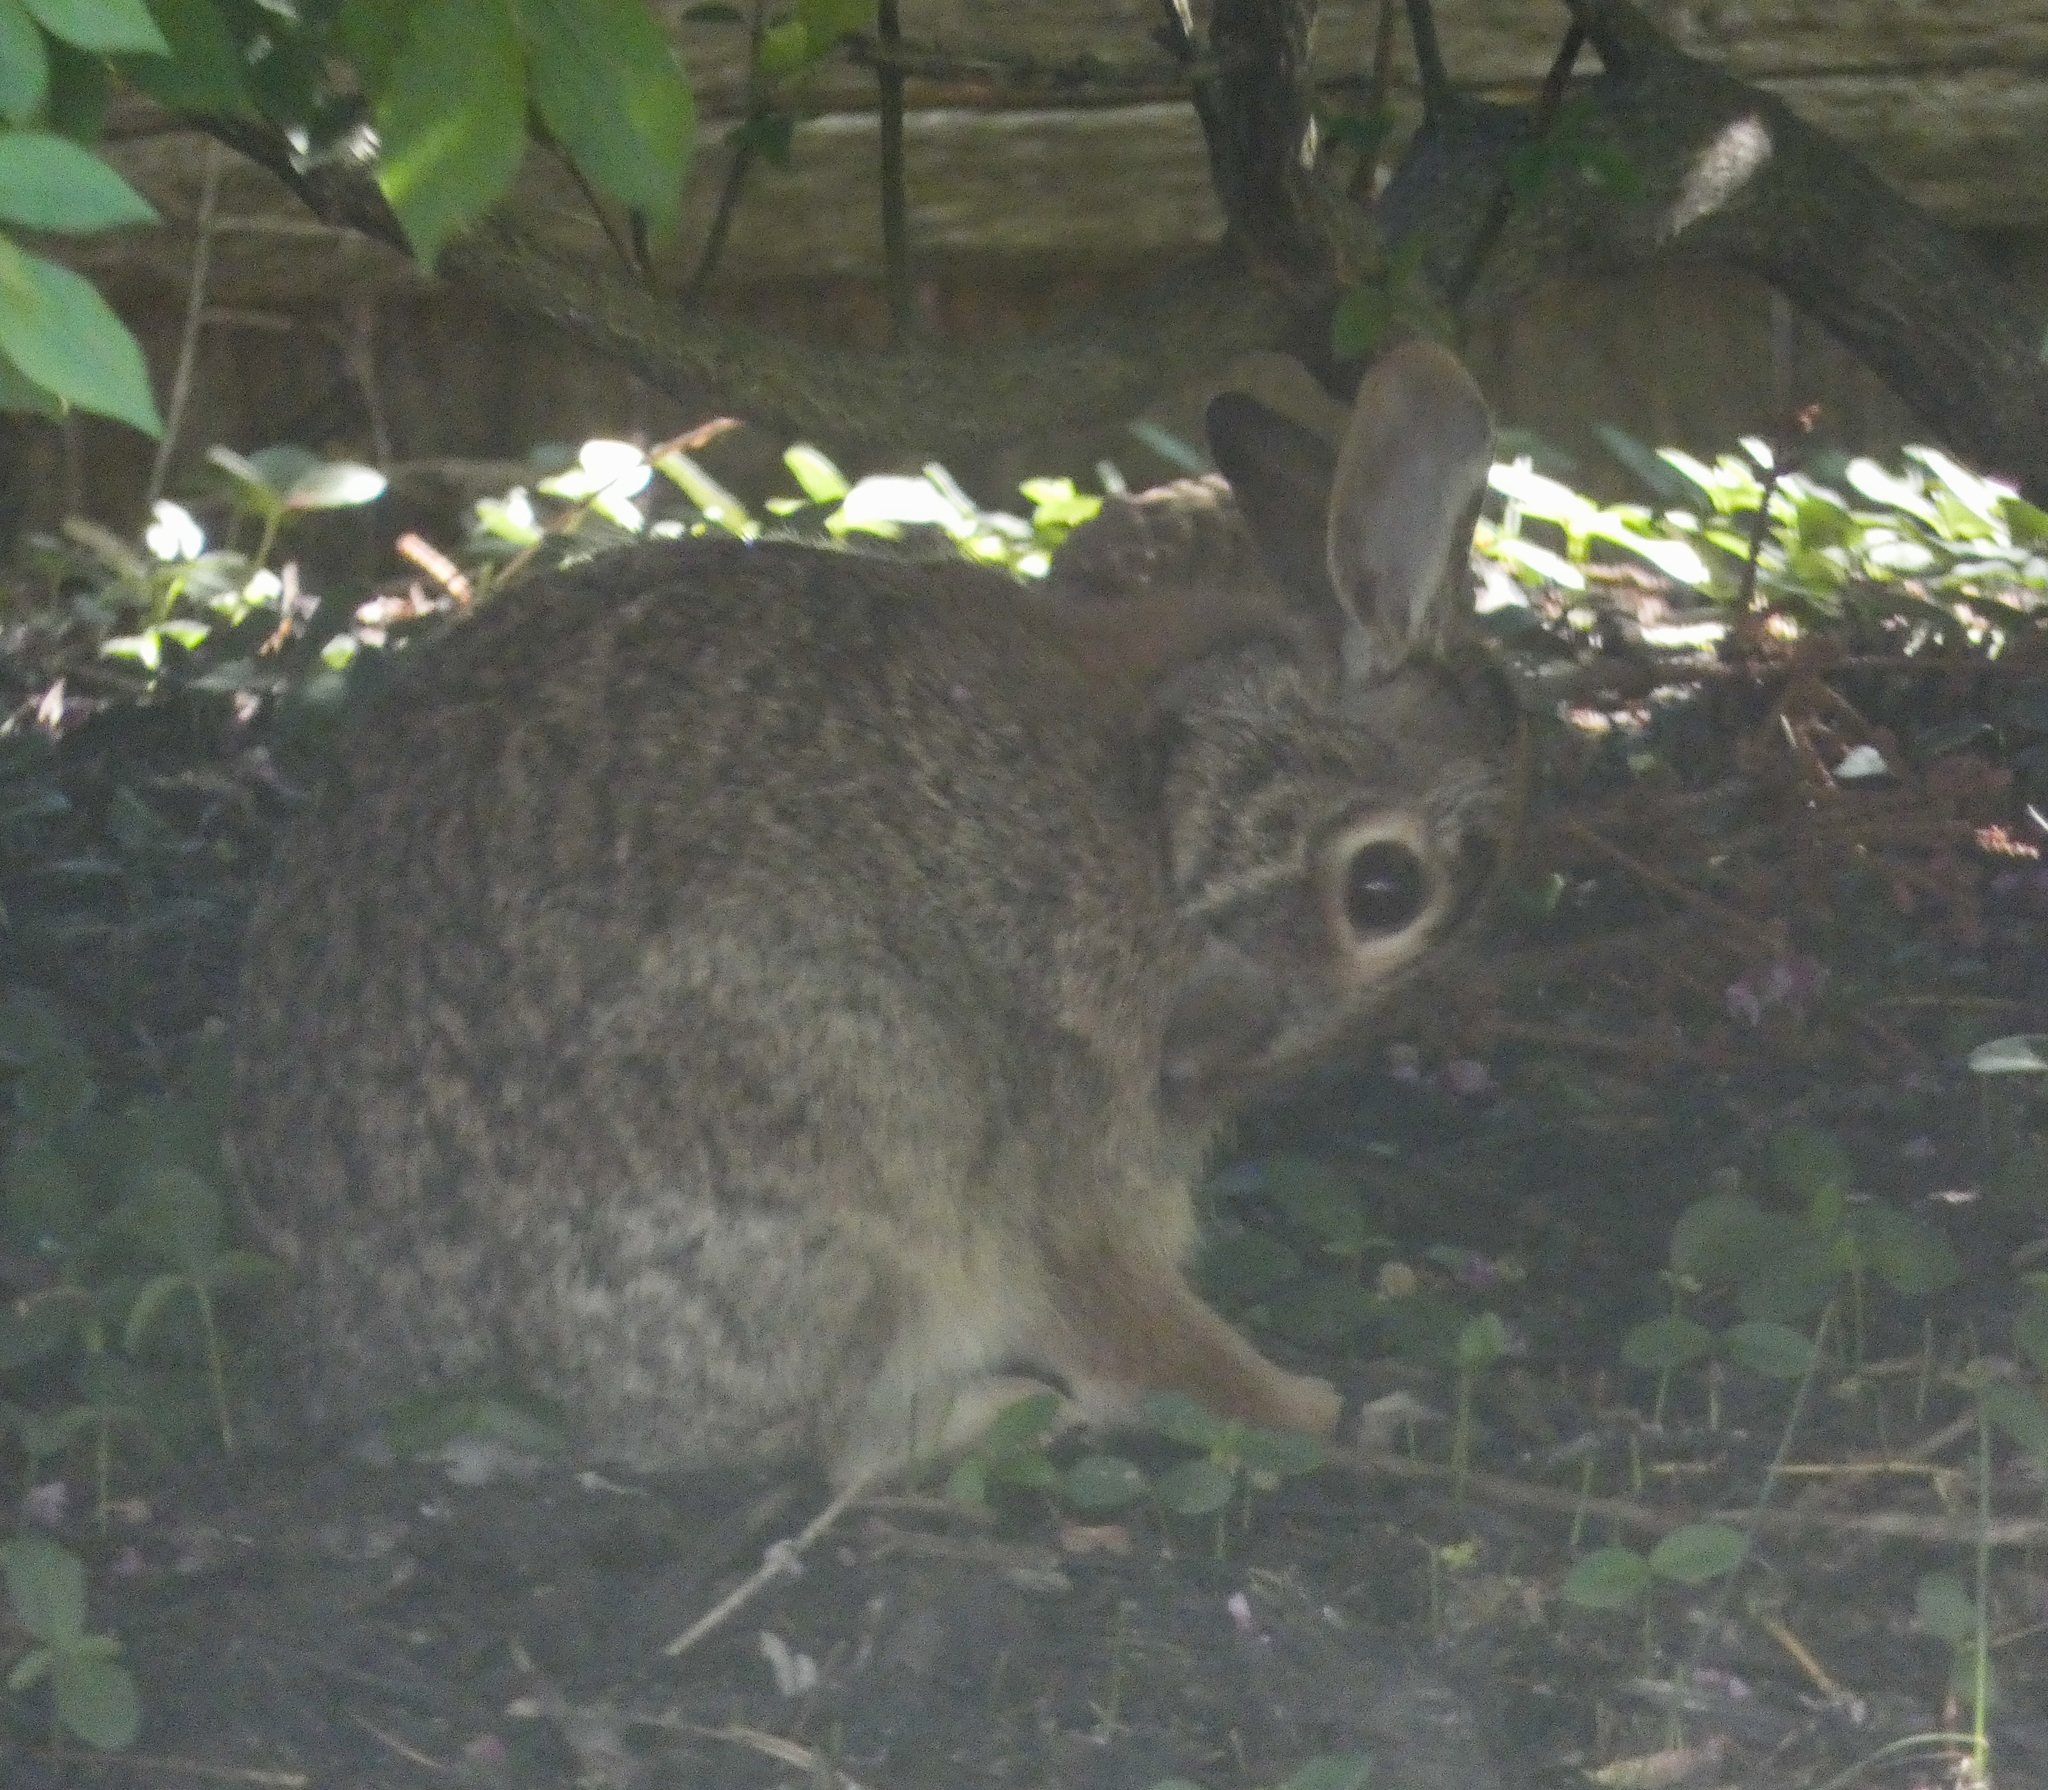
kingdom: Animalia
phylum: Chordata
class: Mammalia
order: Lagomorpha
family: Leporidae
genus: Sylvilagus
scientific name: Sylvilagus floridanus
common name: Eastern cottontail
